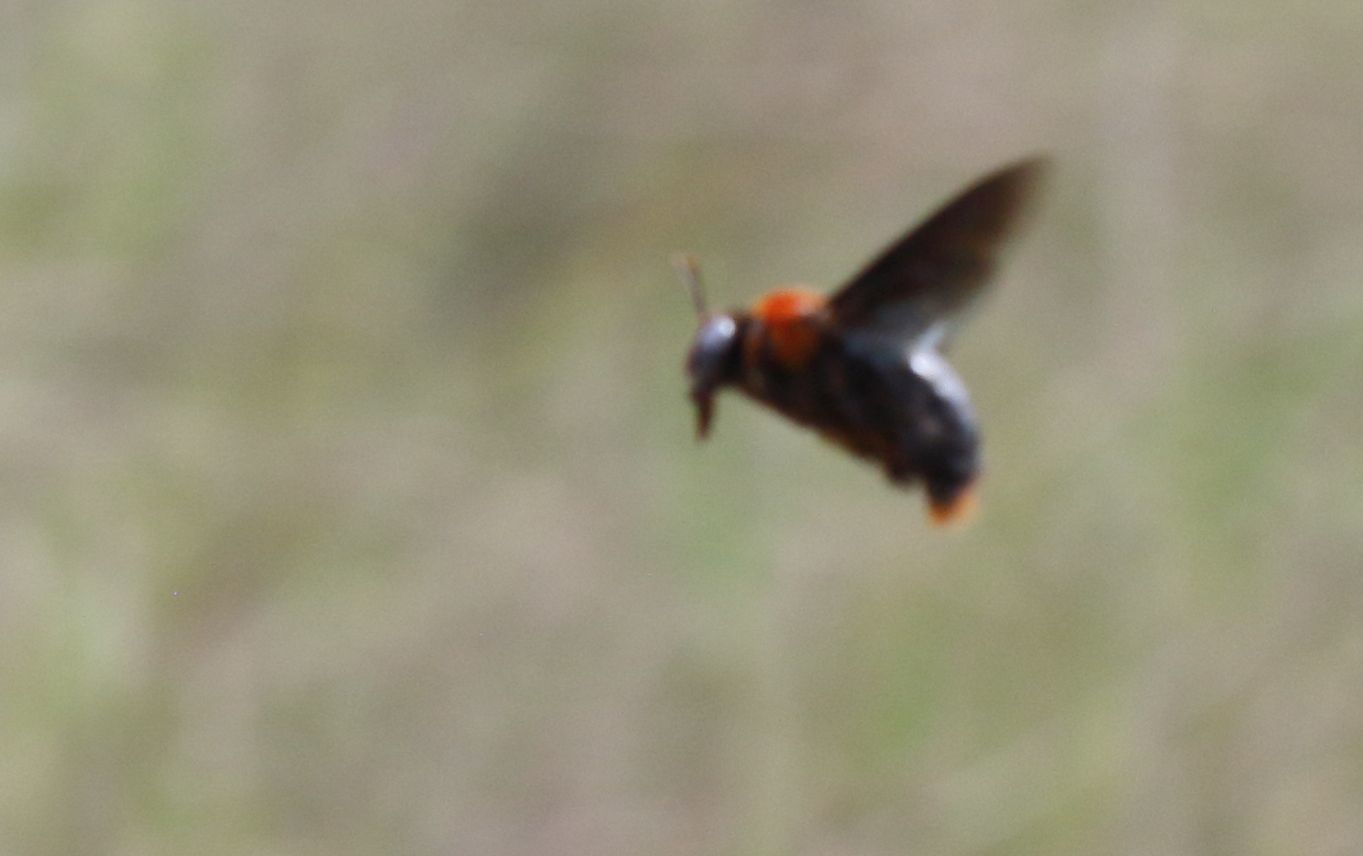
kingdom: Animalia
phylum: Arthropoda
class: Insecta
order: Hymenoptera
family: Apidae
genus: Xylocopa
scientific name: Xylocopa flavorufa
